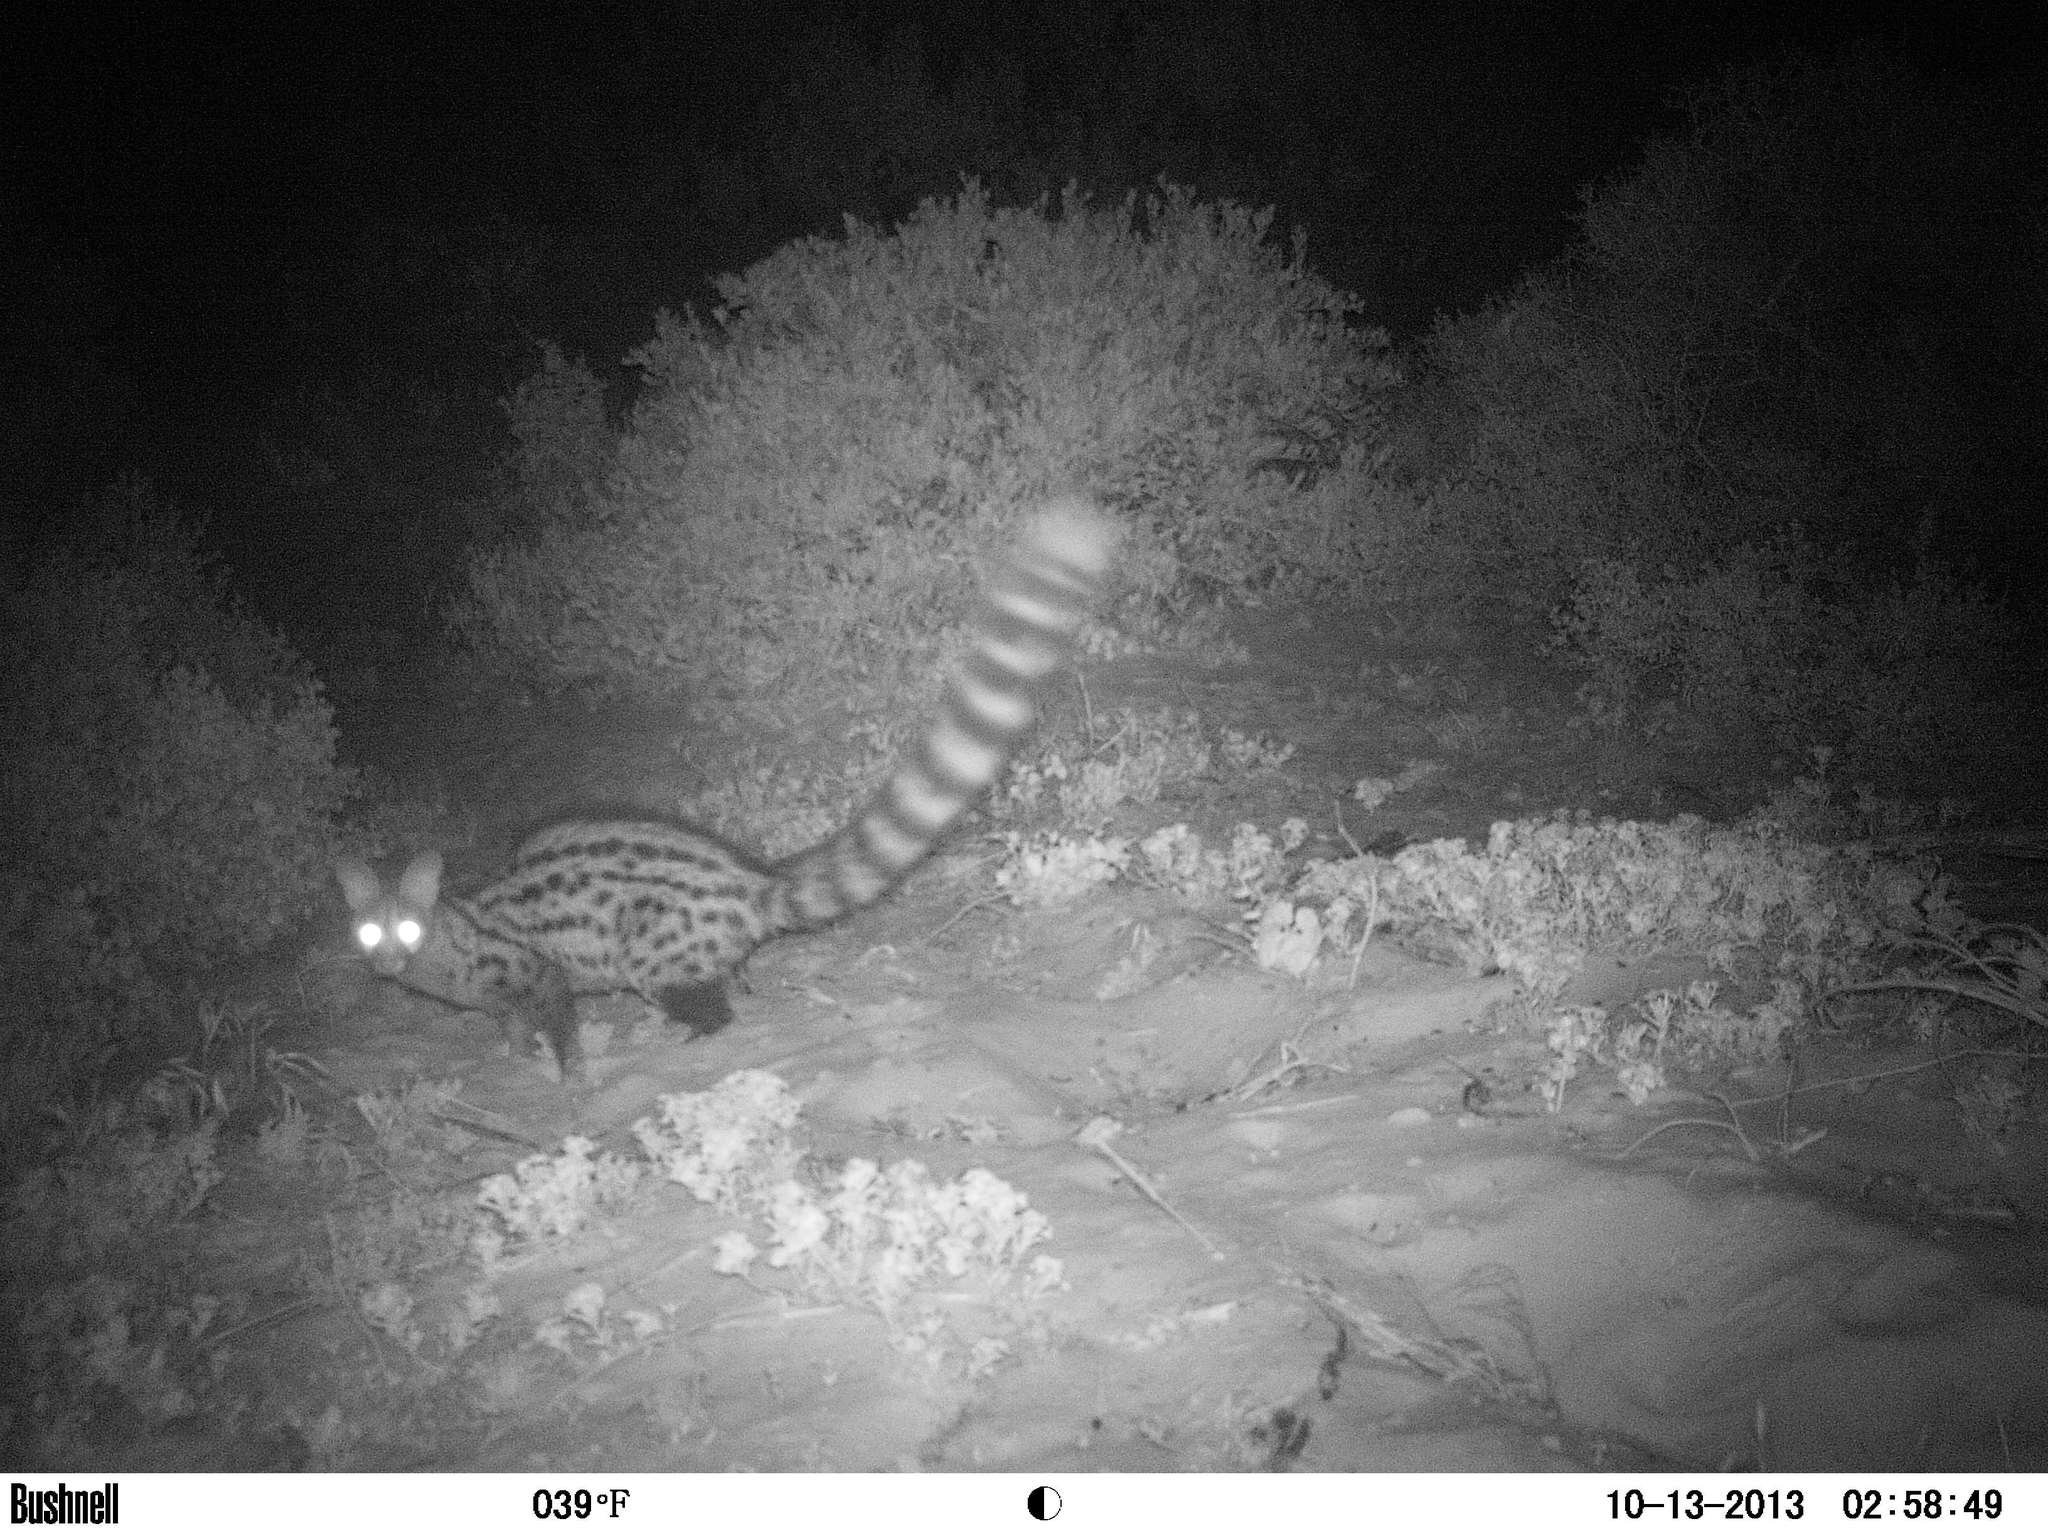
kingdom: Animalia
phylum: Chordata
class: Mammalia
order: Carnivora
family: Viverridae
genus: Genetta
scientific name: Genetta genetta
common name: Common genet
